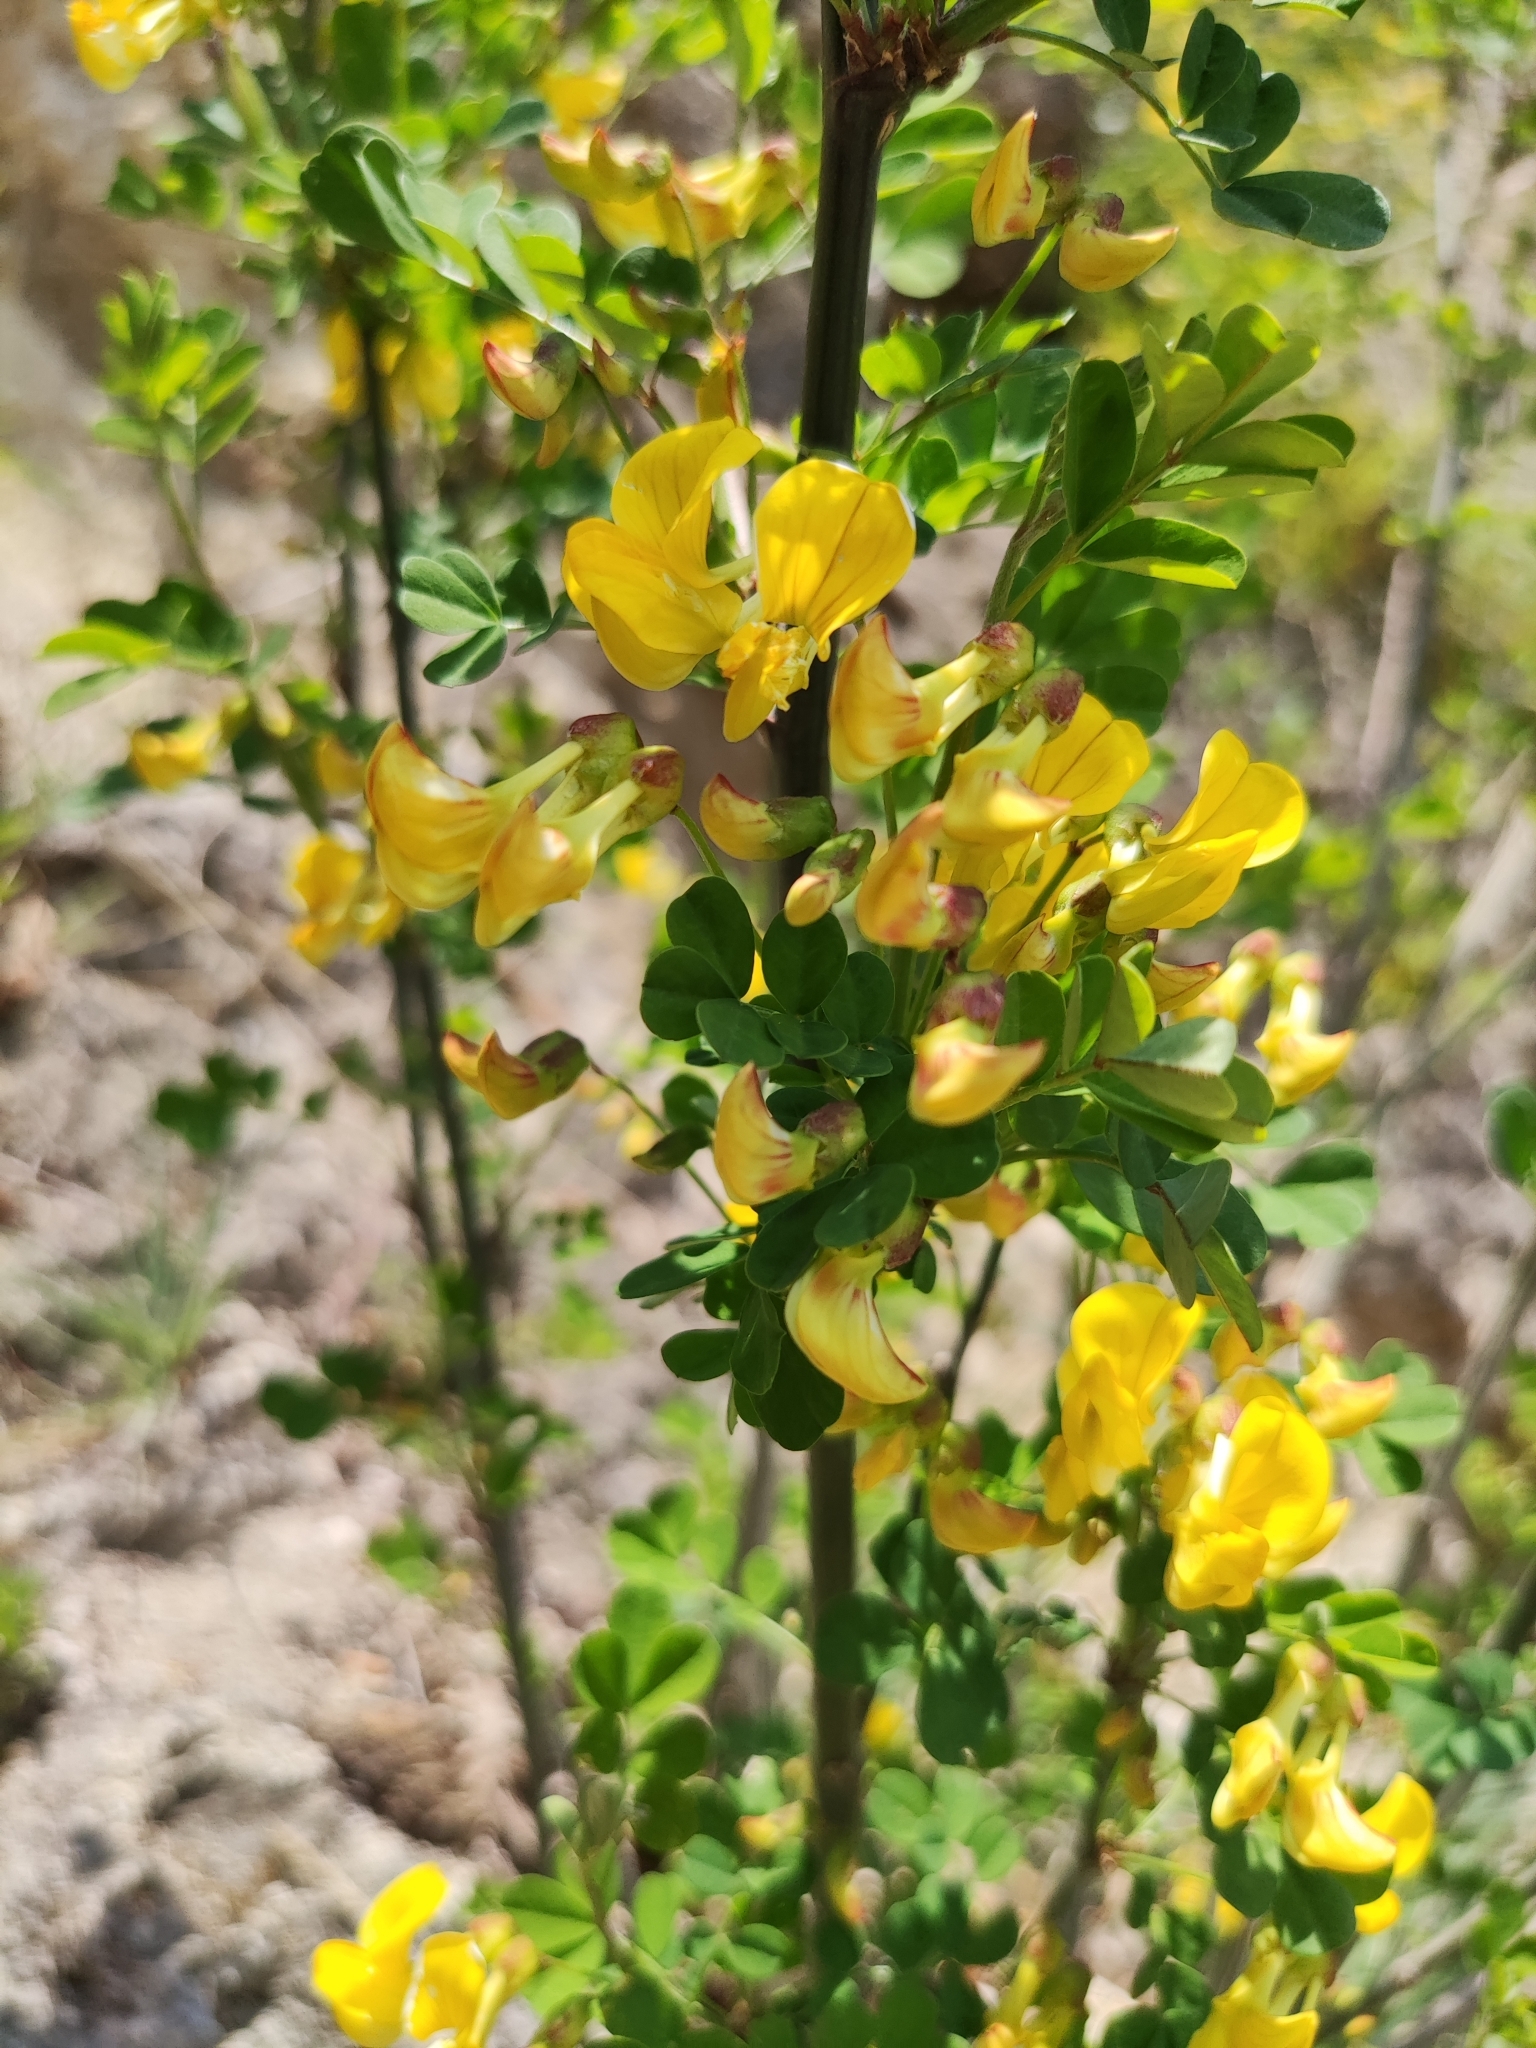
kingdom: Plantae
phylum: Tracheophyta
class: Magnoliopsida
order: Fabales
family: Fabaceae
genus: Hippocrepis
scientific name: Hippocrepis emerus
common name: Scorpion senna
